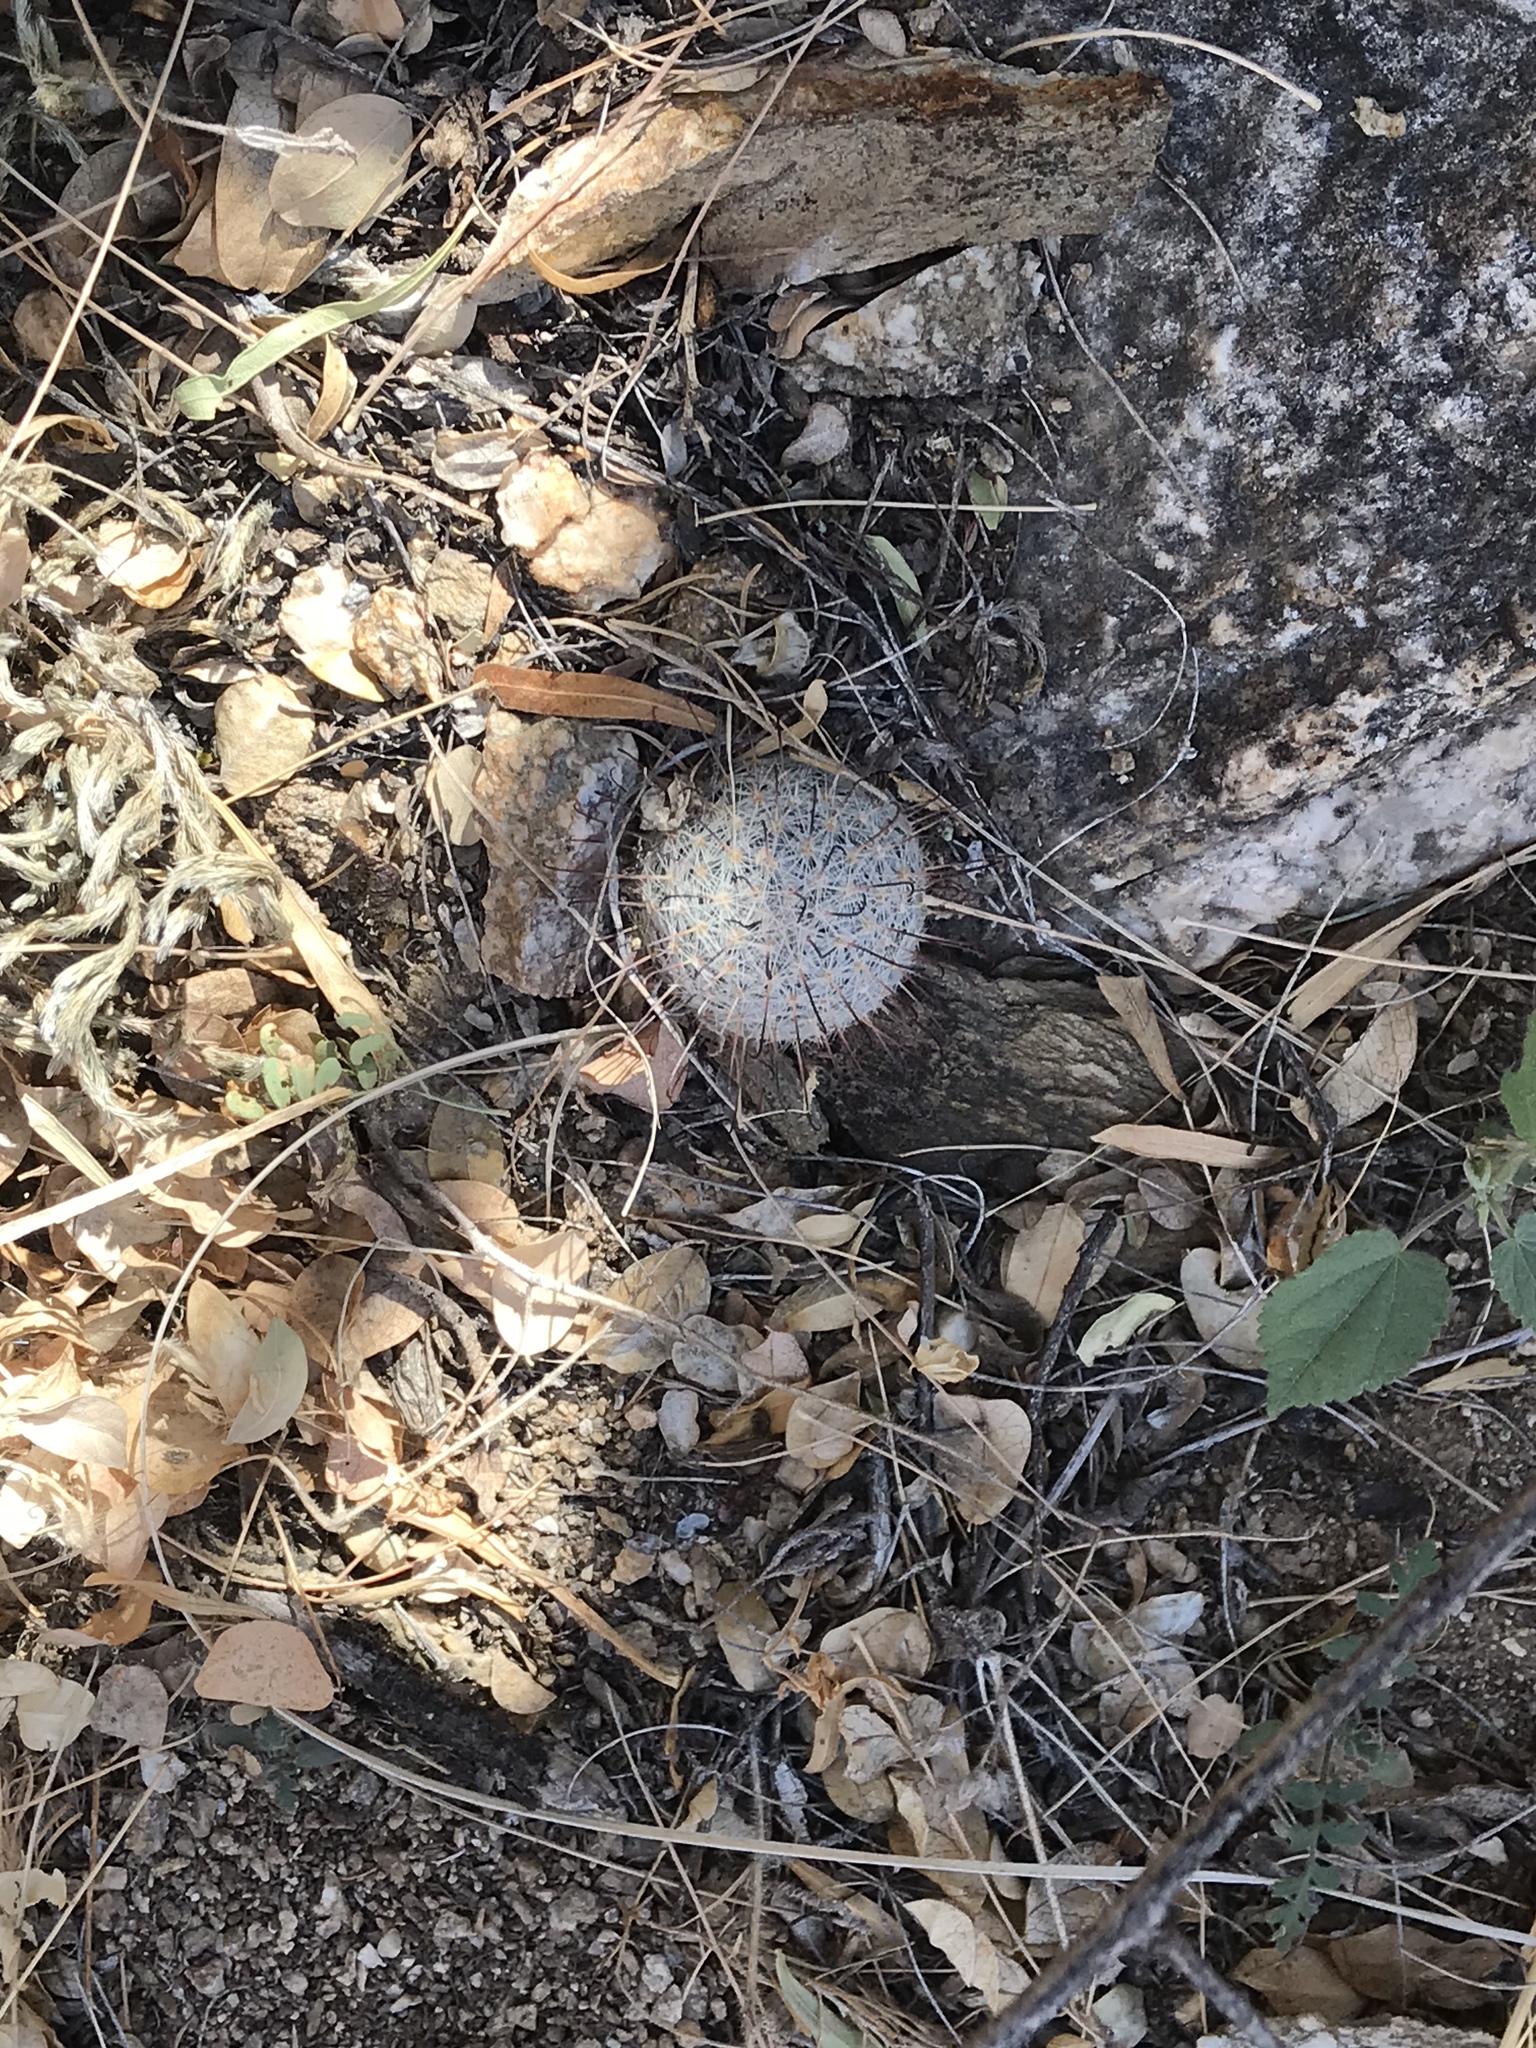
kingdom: Plantae
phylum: Tracheophyta
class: Magnoliopsida
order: Caryophyllales
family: Cactaceae
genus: Cochemiea
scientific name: Cochemiea grahamii
